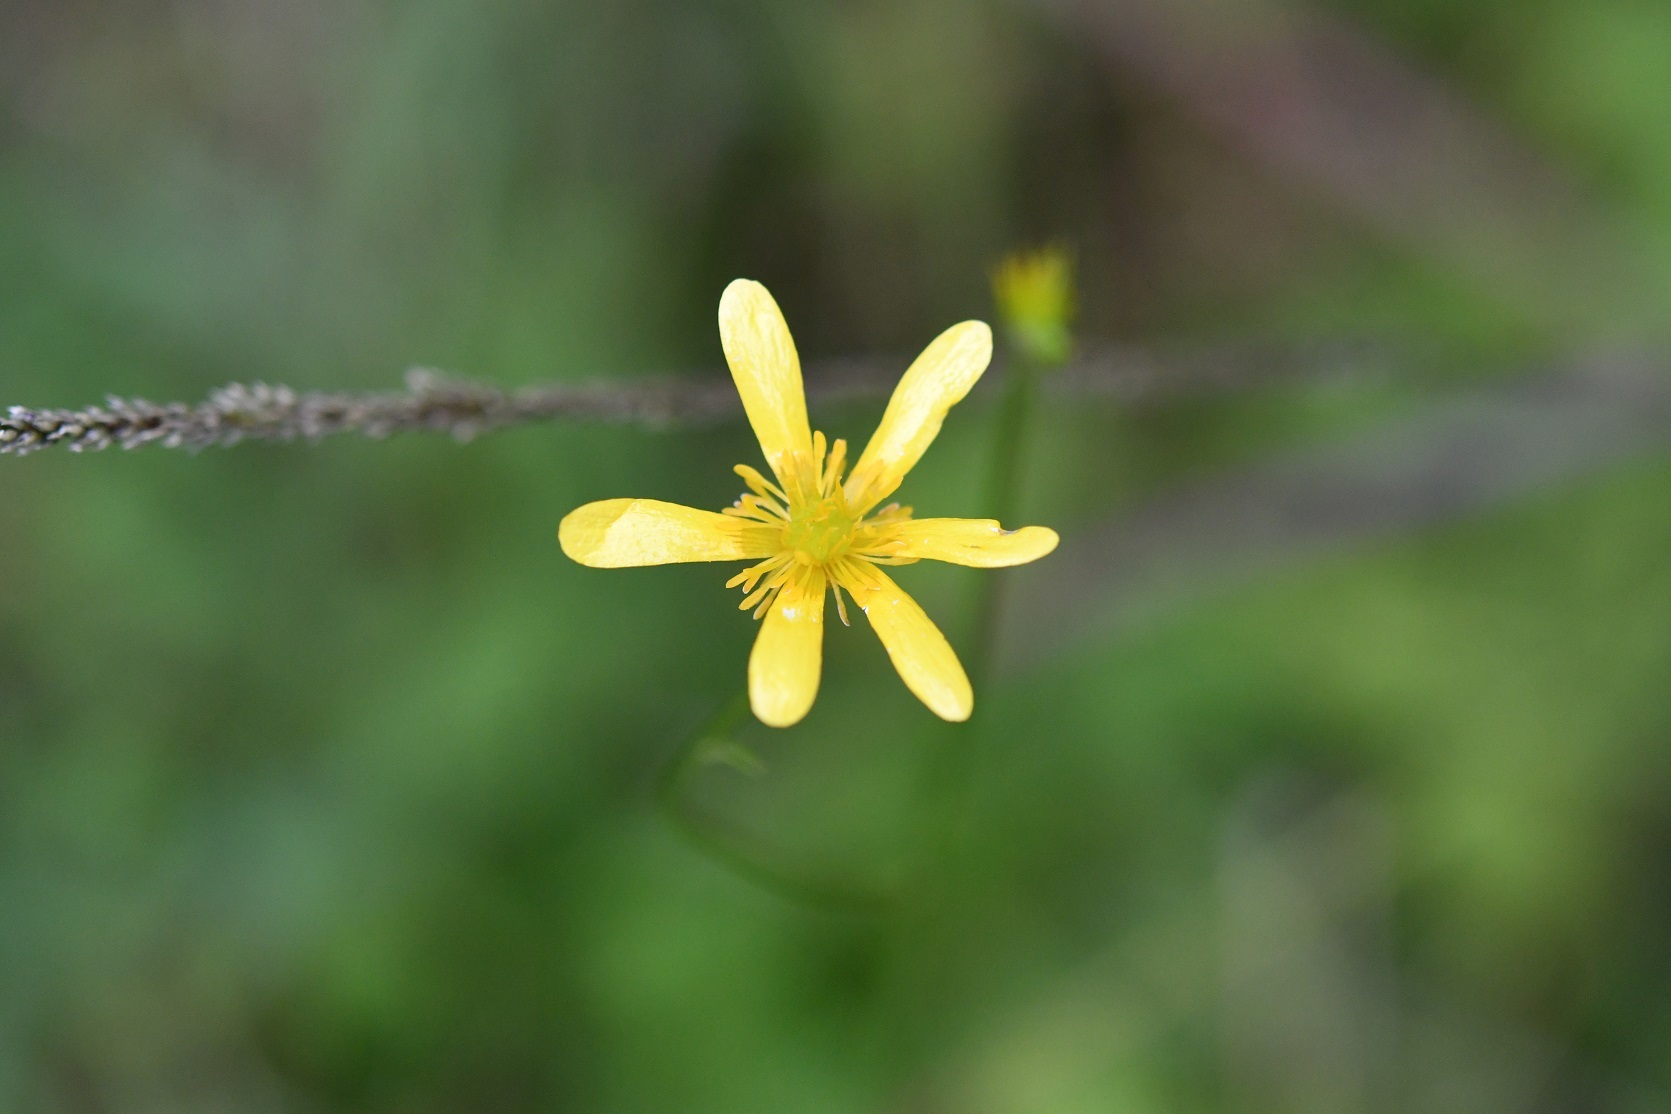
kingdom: Plantae
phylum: Tracheophyta
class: Magnoliopsida
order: Ranunculales
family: Ranunculaceae
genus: Ranunculus
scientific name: Ranunculus petiolaris
